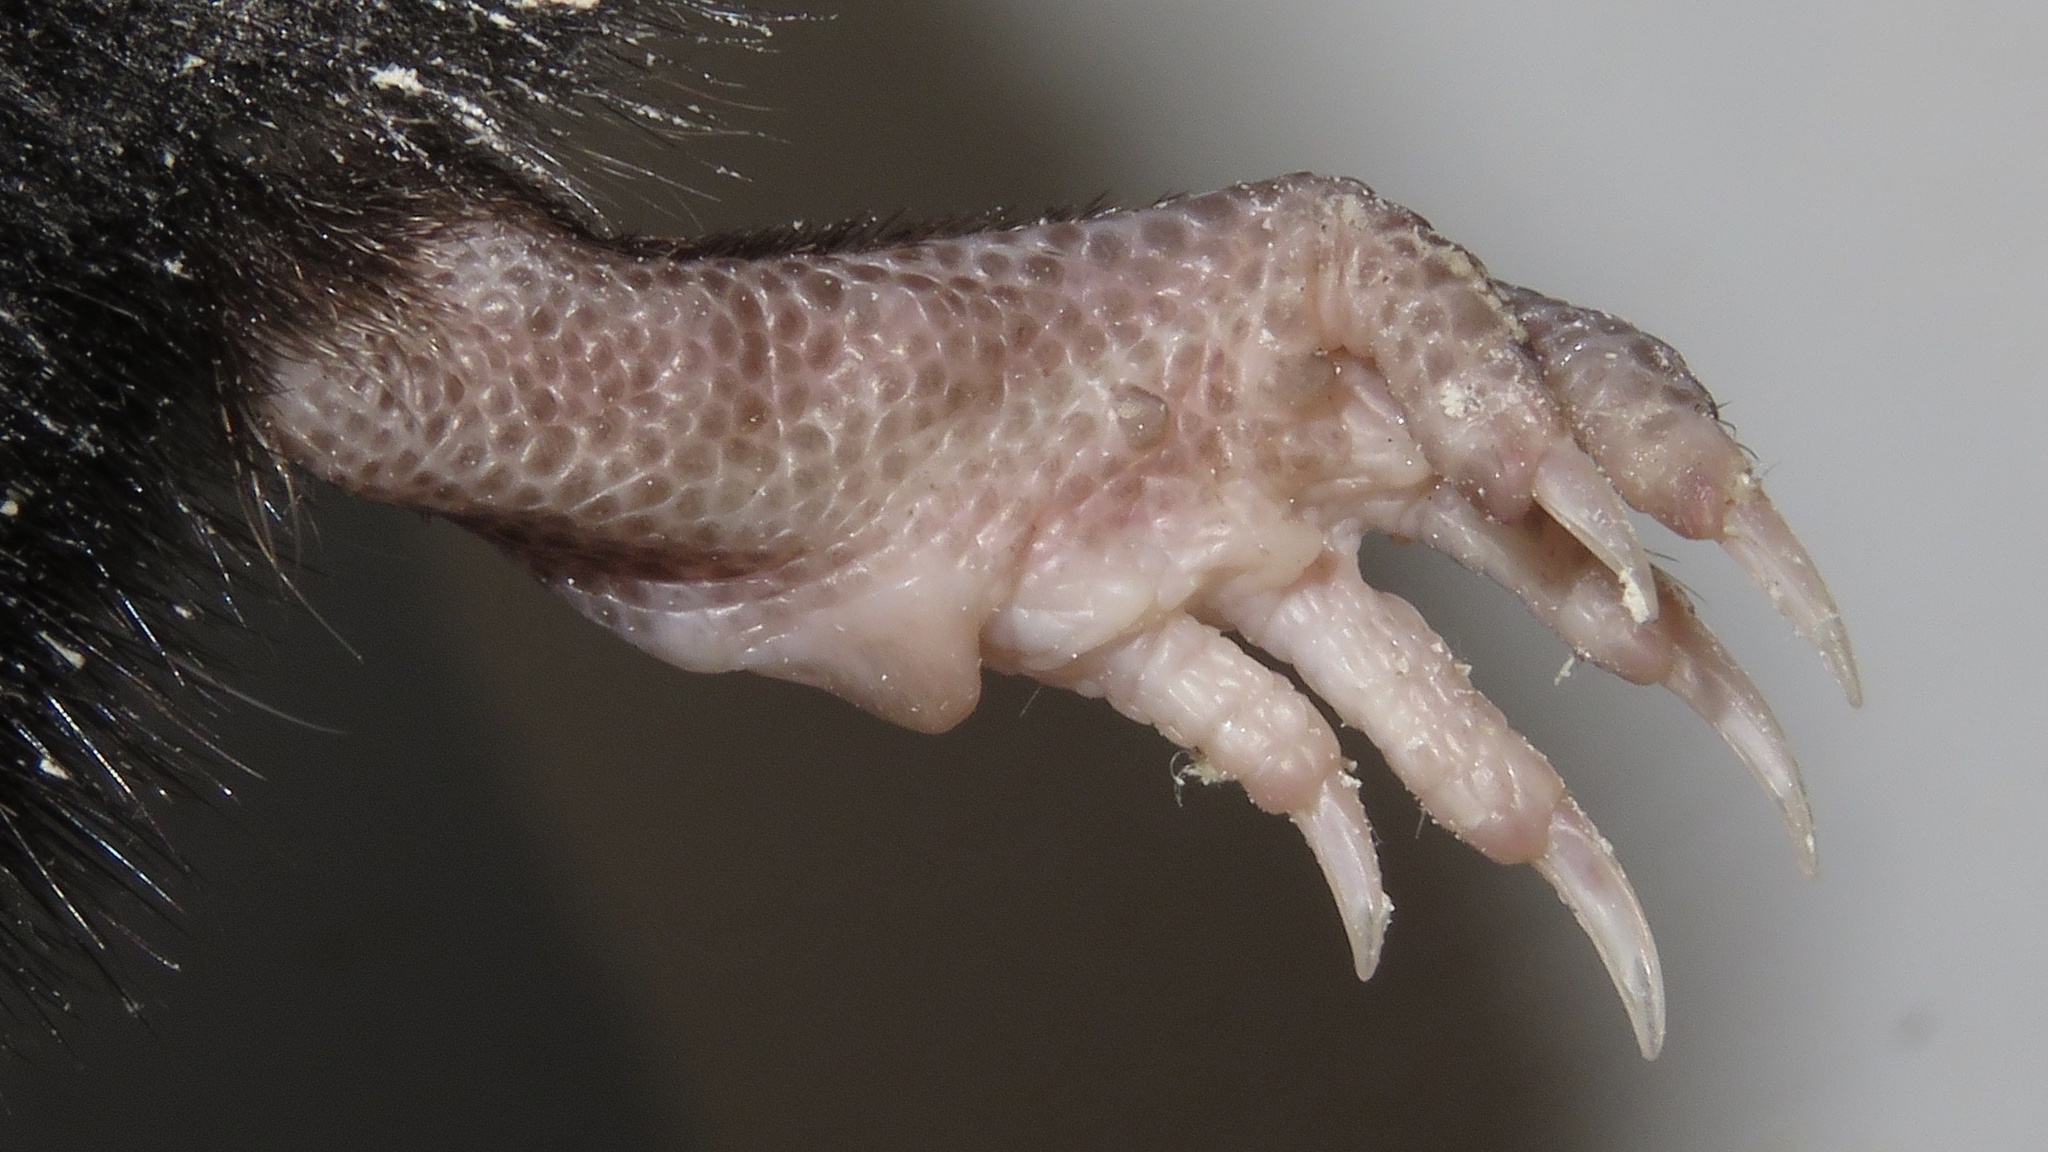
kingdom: Animalia
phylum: Chordata
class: Mammalia
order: Soricomorpha
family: Talpidae
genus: Condylura
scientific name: Condylura cristata
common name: Star-nosed mole
